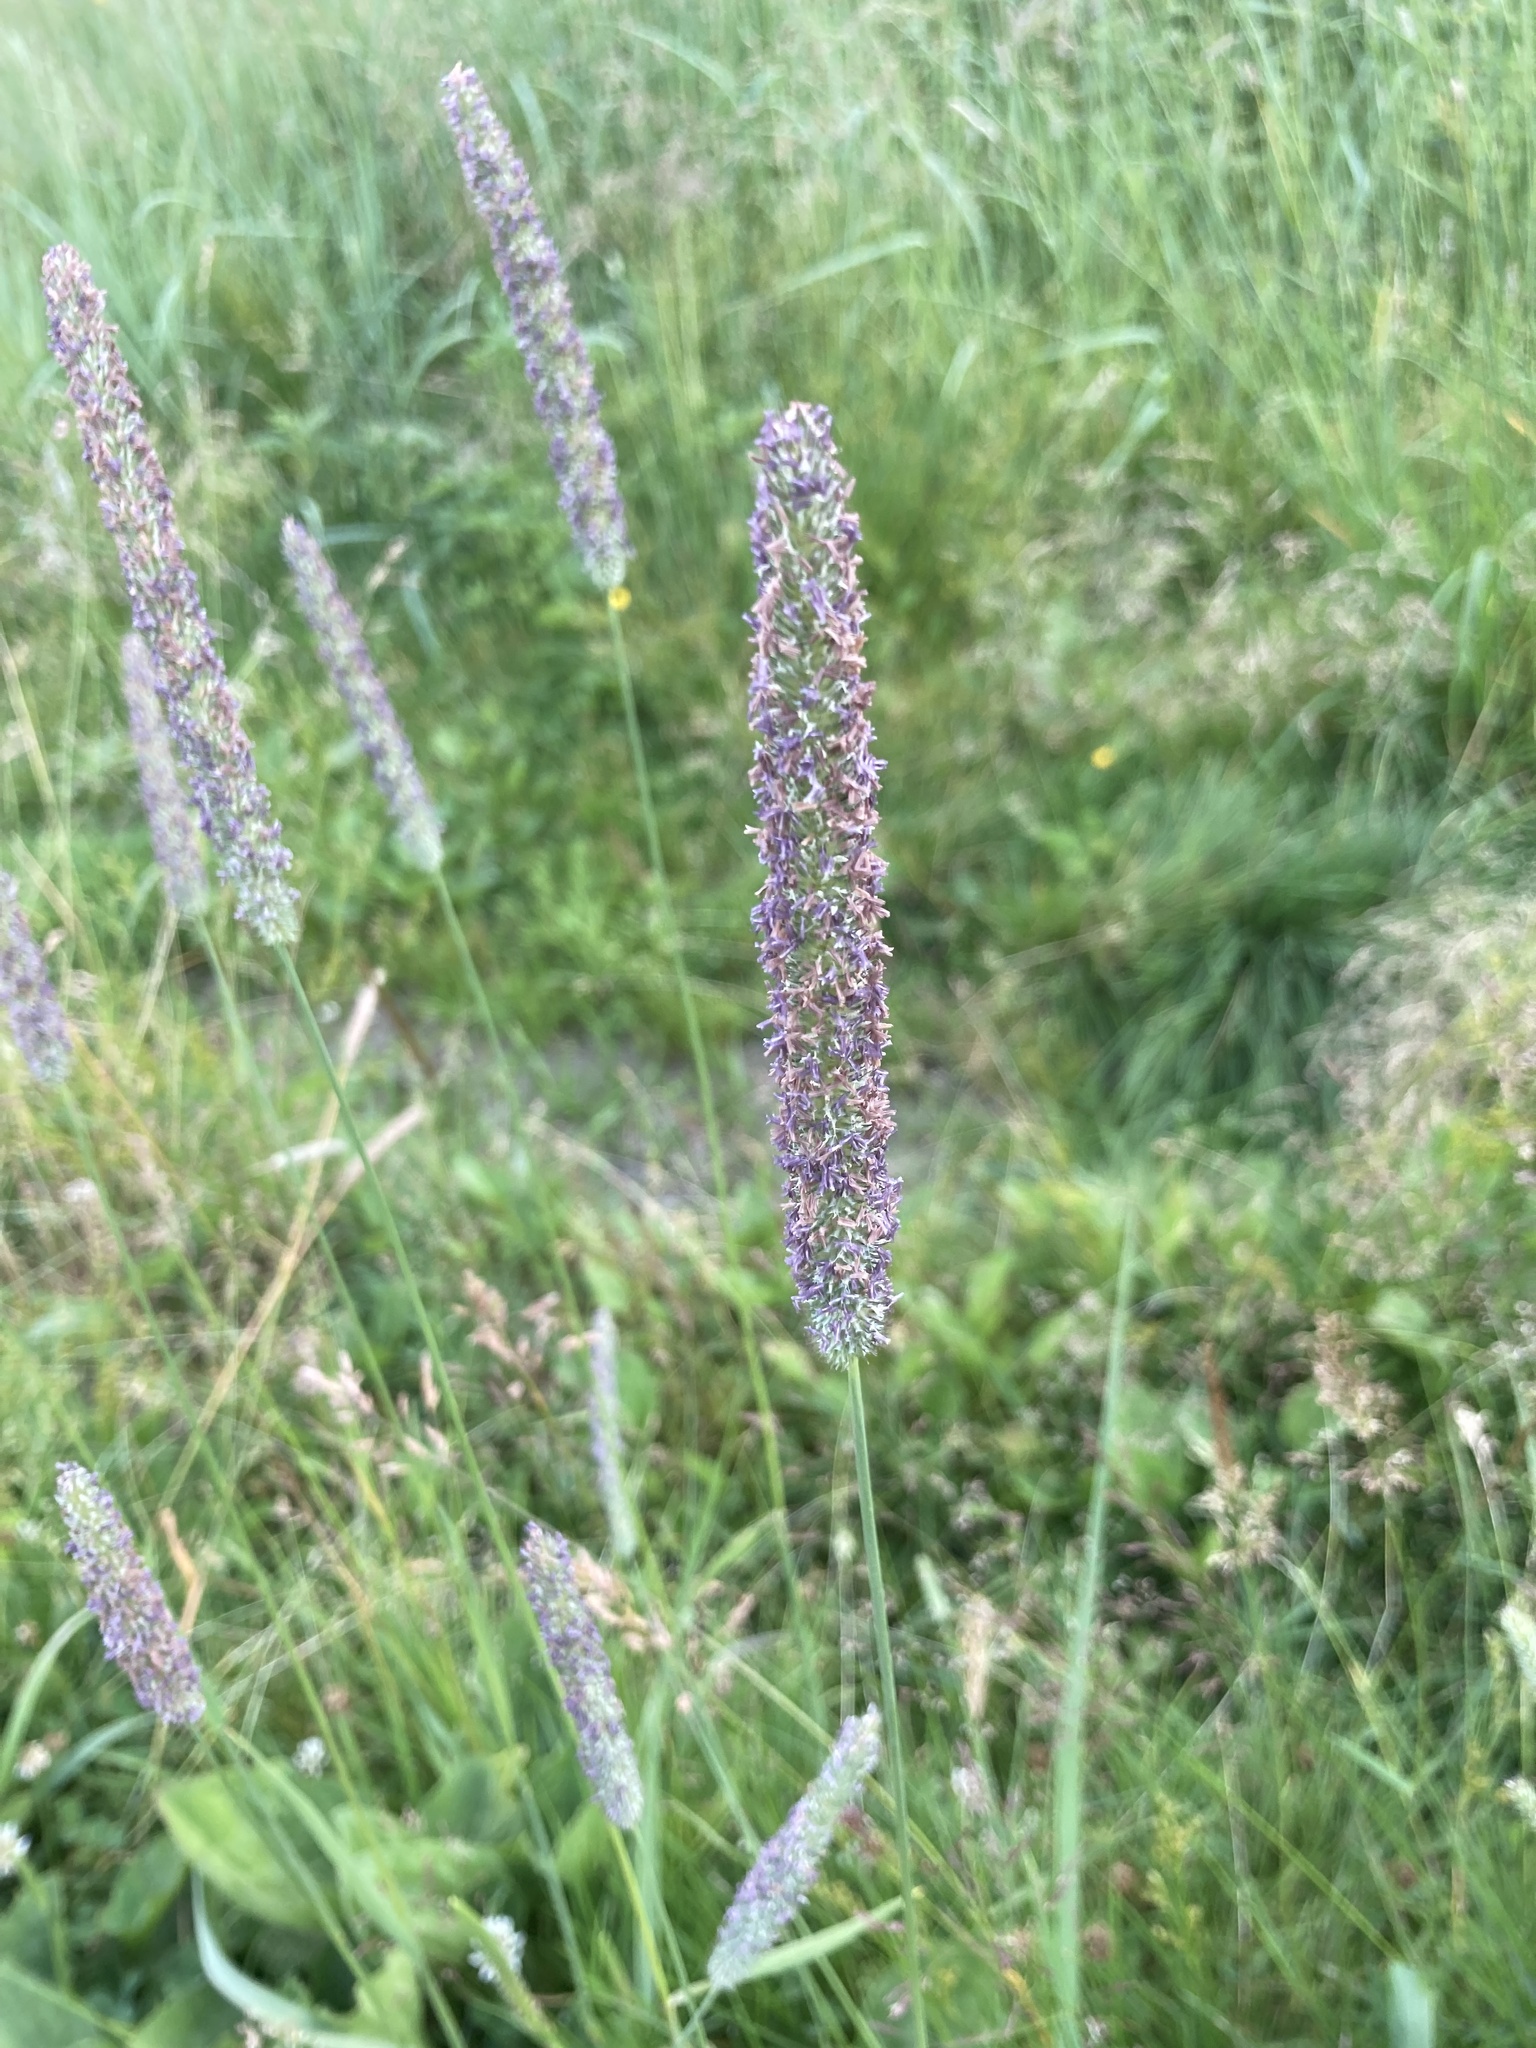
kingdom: Plantae
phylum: Tracheophyta
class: Liliopsida
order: Poales
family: Poaceae
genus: Phleum
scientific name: Phleum pratense
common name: Timothy grass
